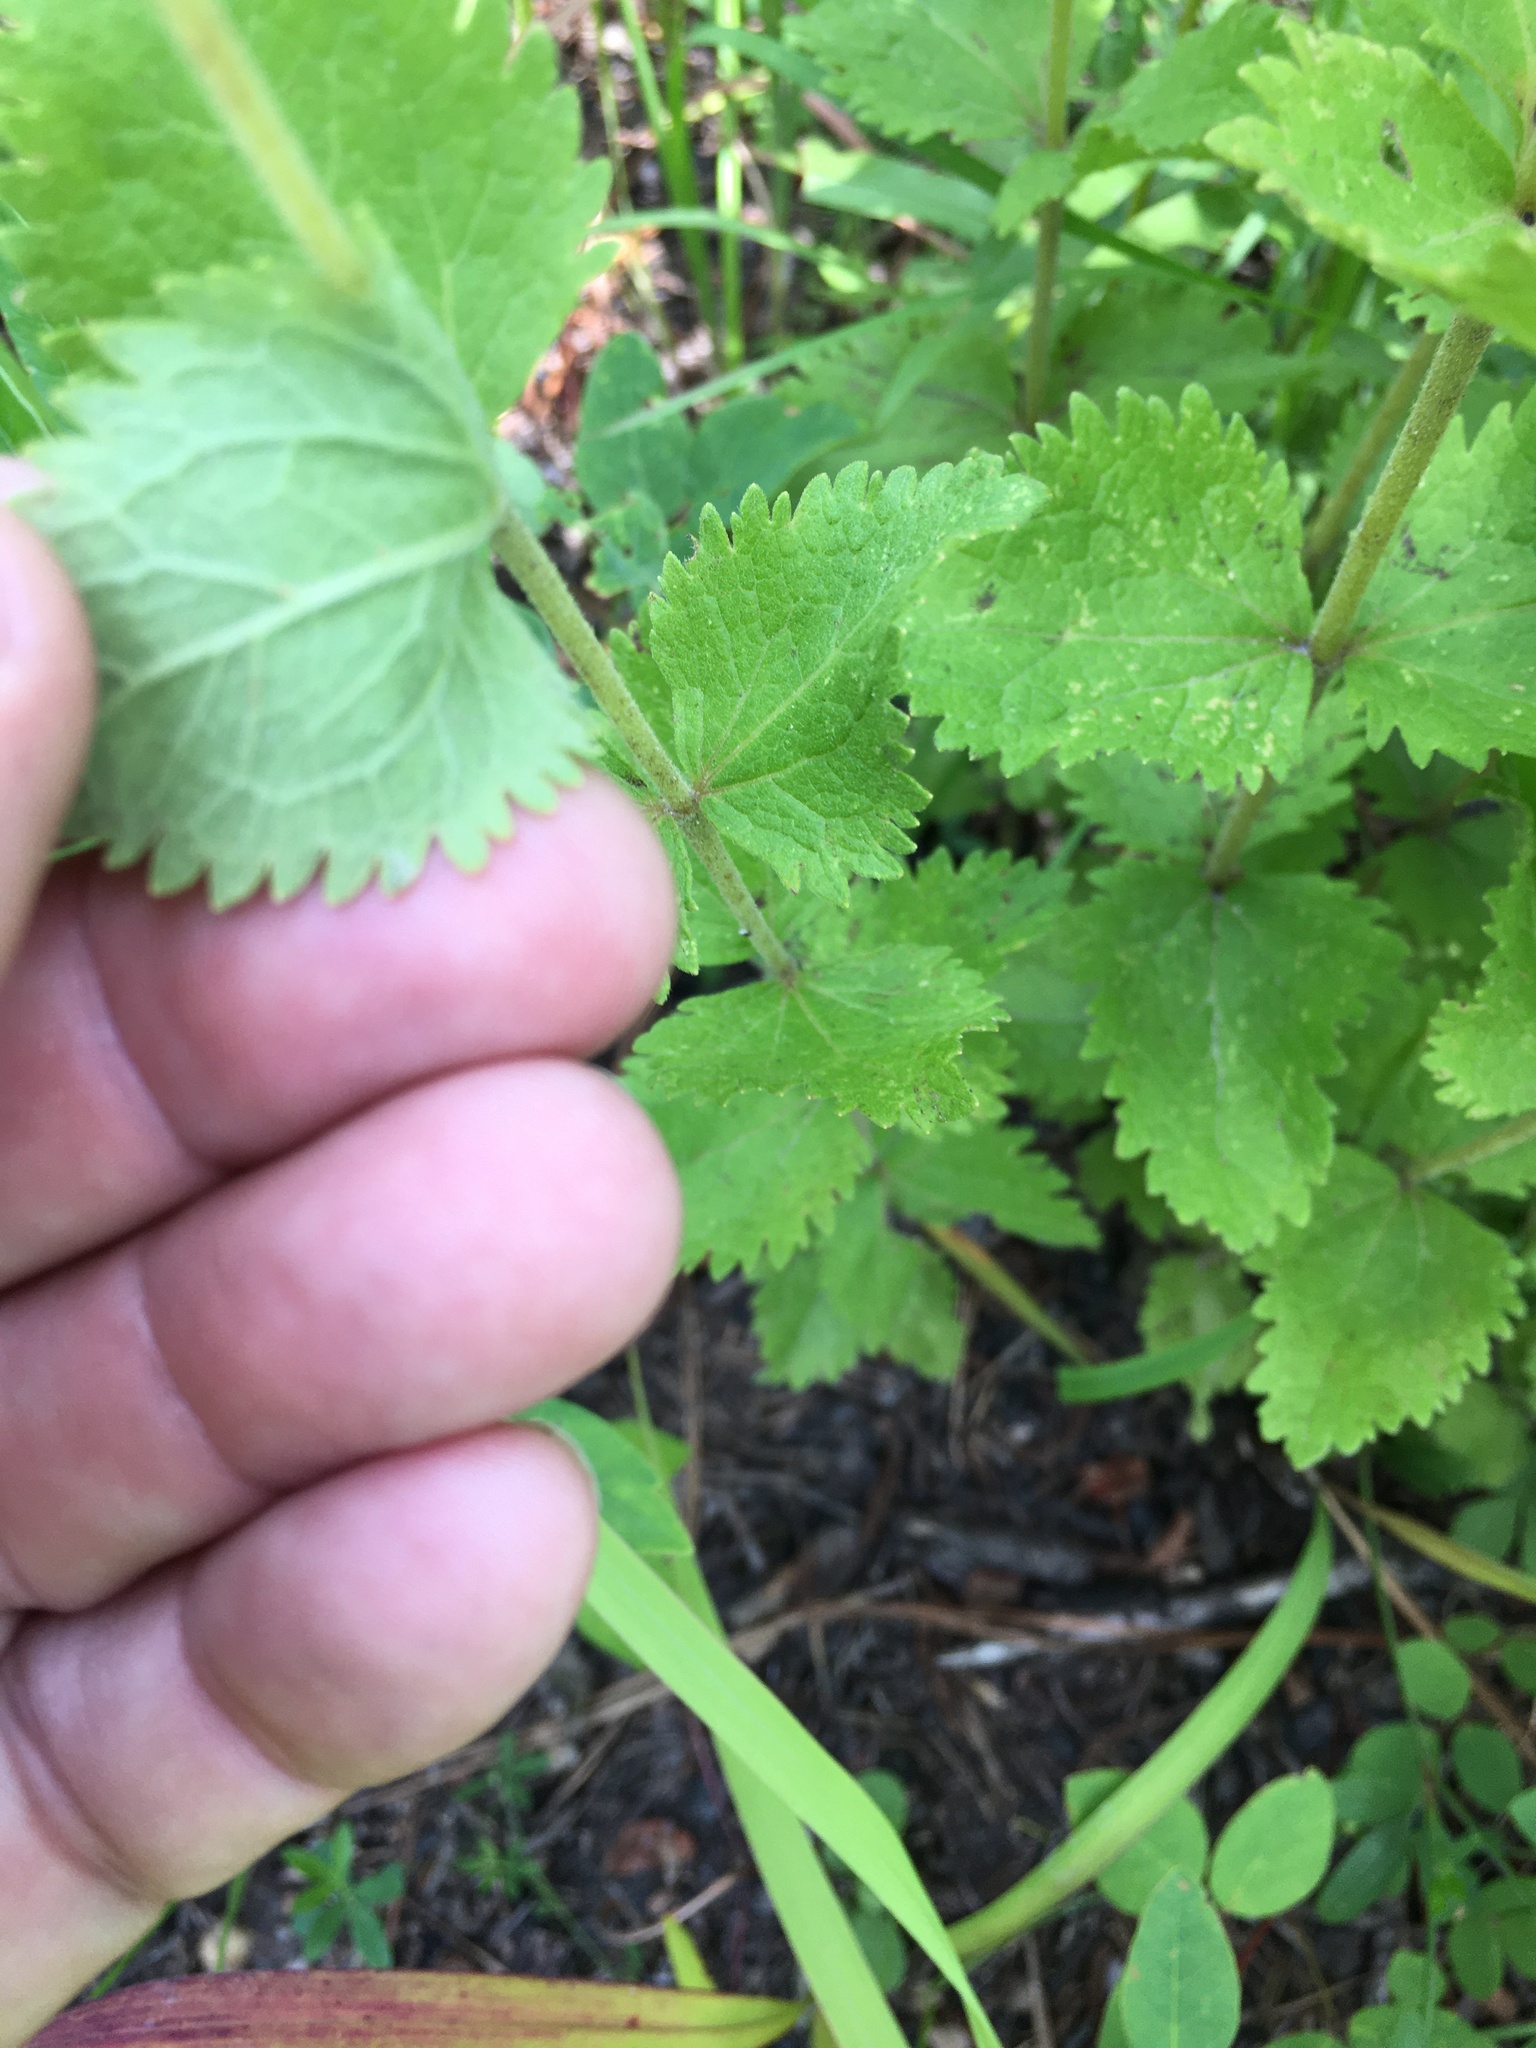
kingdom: Plantae
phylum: Tracheophyta
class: Magnoliopsida
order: Asterales
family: Asteraceae
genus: Eupatorium
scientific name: Eupatorium rotundifolium
